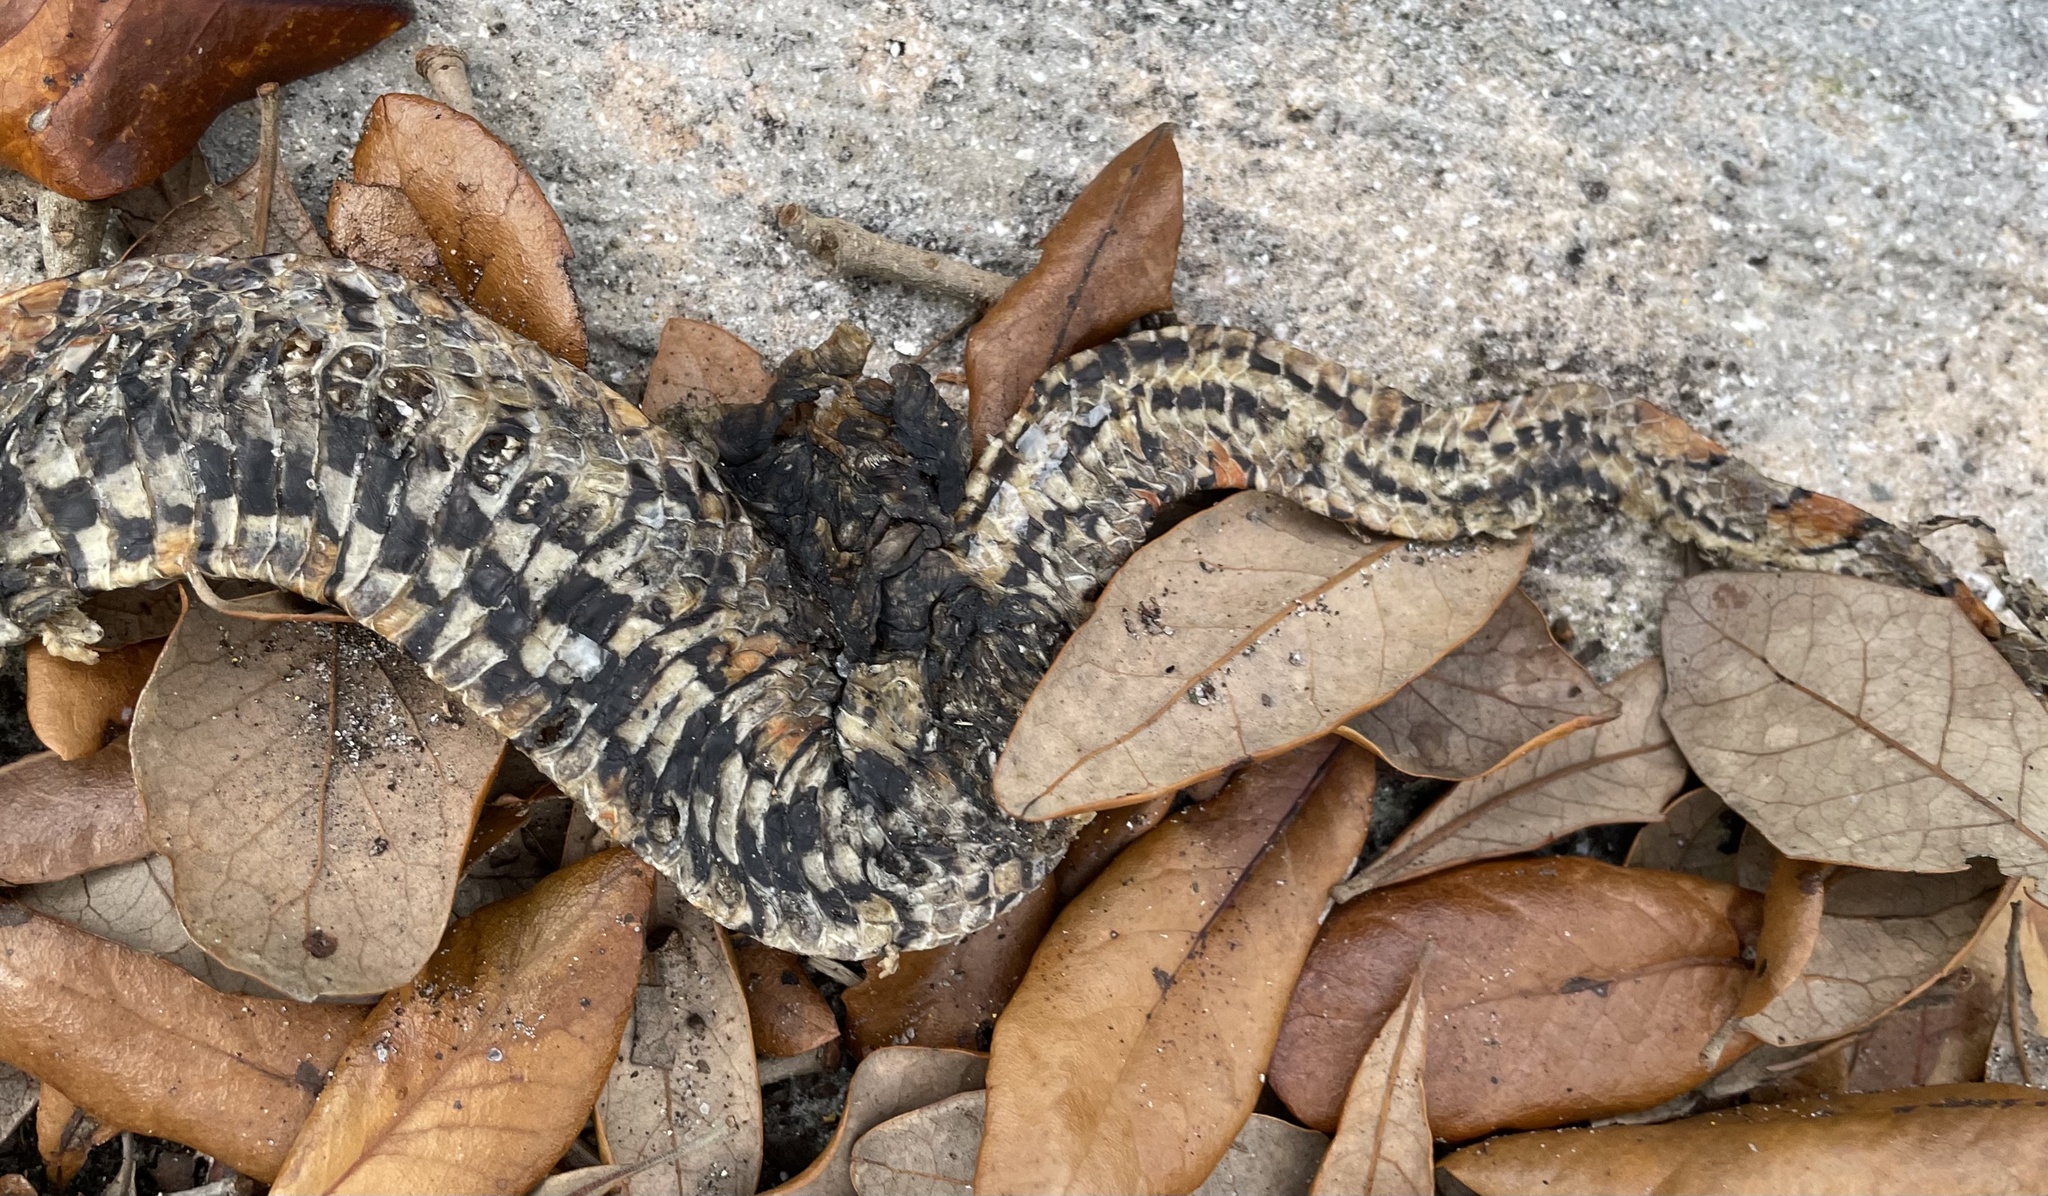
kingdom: Animalia
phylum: Chordata
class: Squamata
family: Colubridae
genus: Pantherophis
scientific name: Pantherophis guttatus
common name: Red cornsnake
